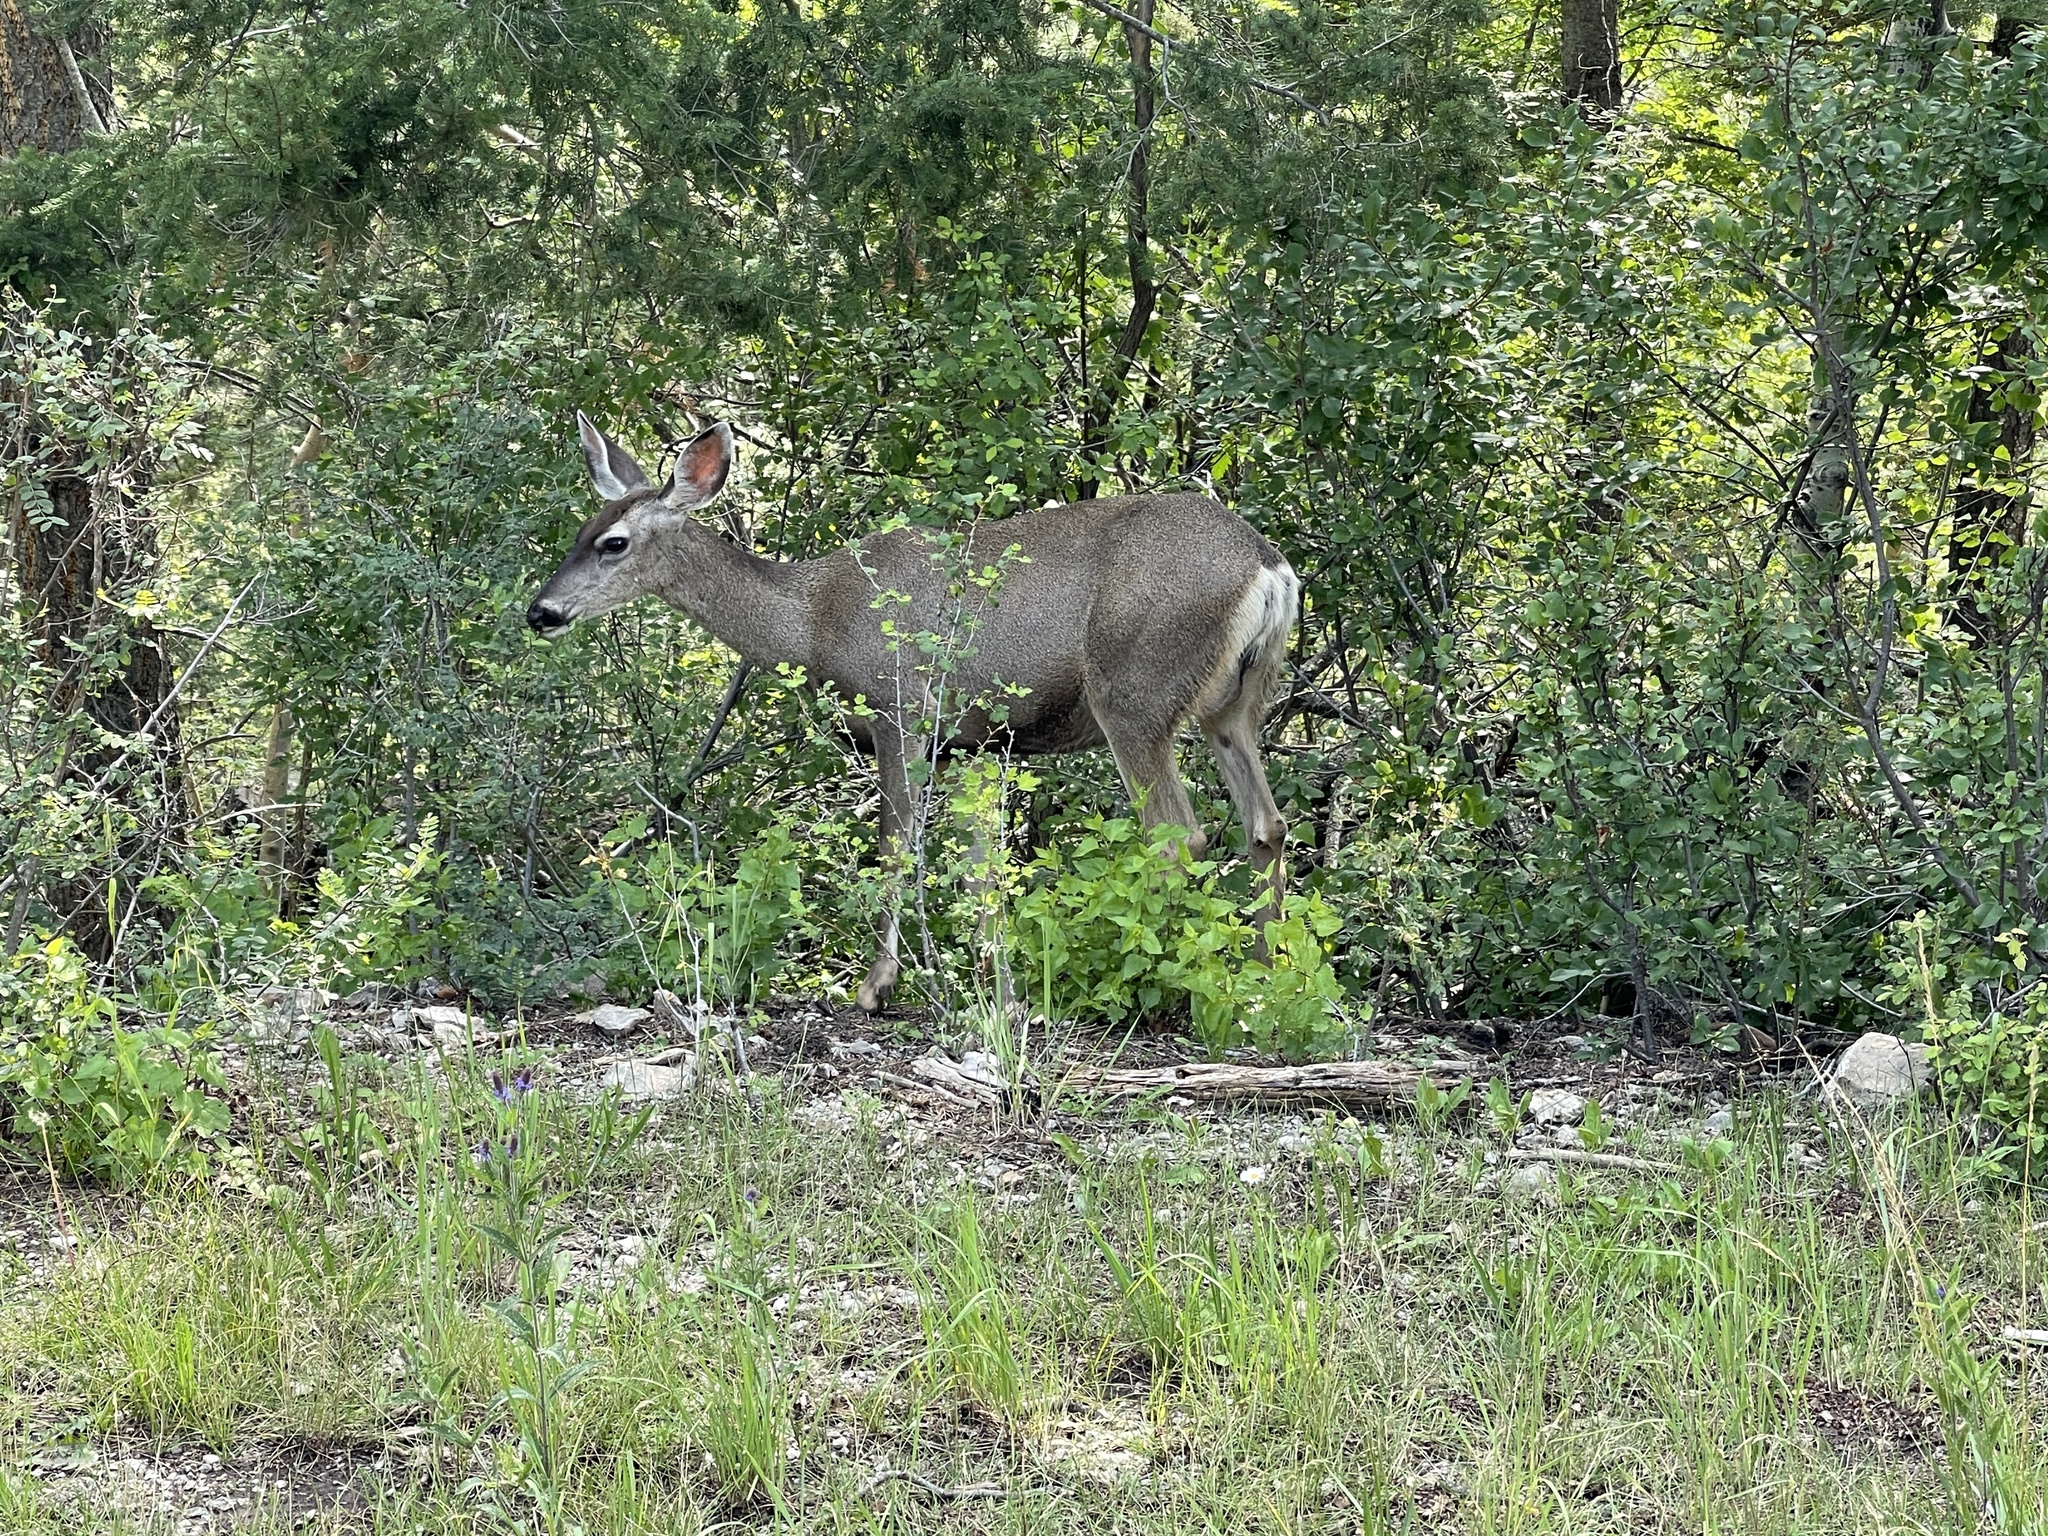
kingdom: Animalia
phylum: Chordata
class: Mammalia
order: Artiodactyla
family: Cervidae
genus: Odocoileus
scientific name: Odocoileus hemionus
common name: Mule deer
